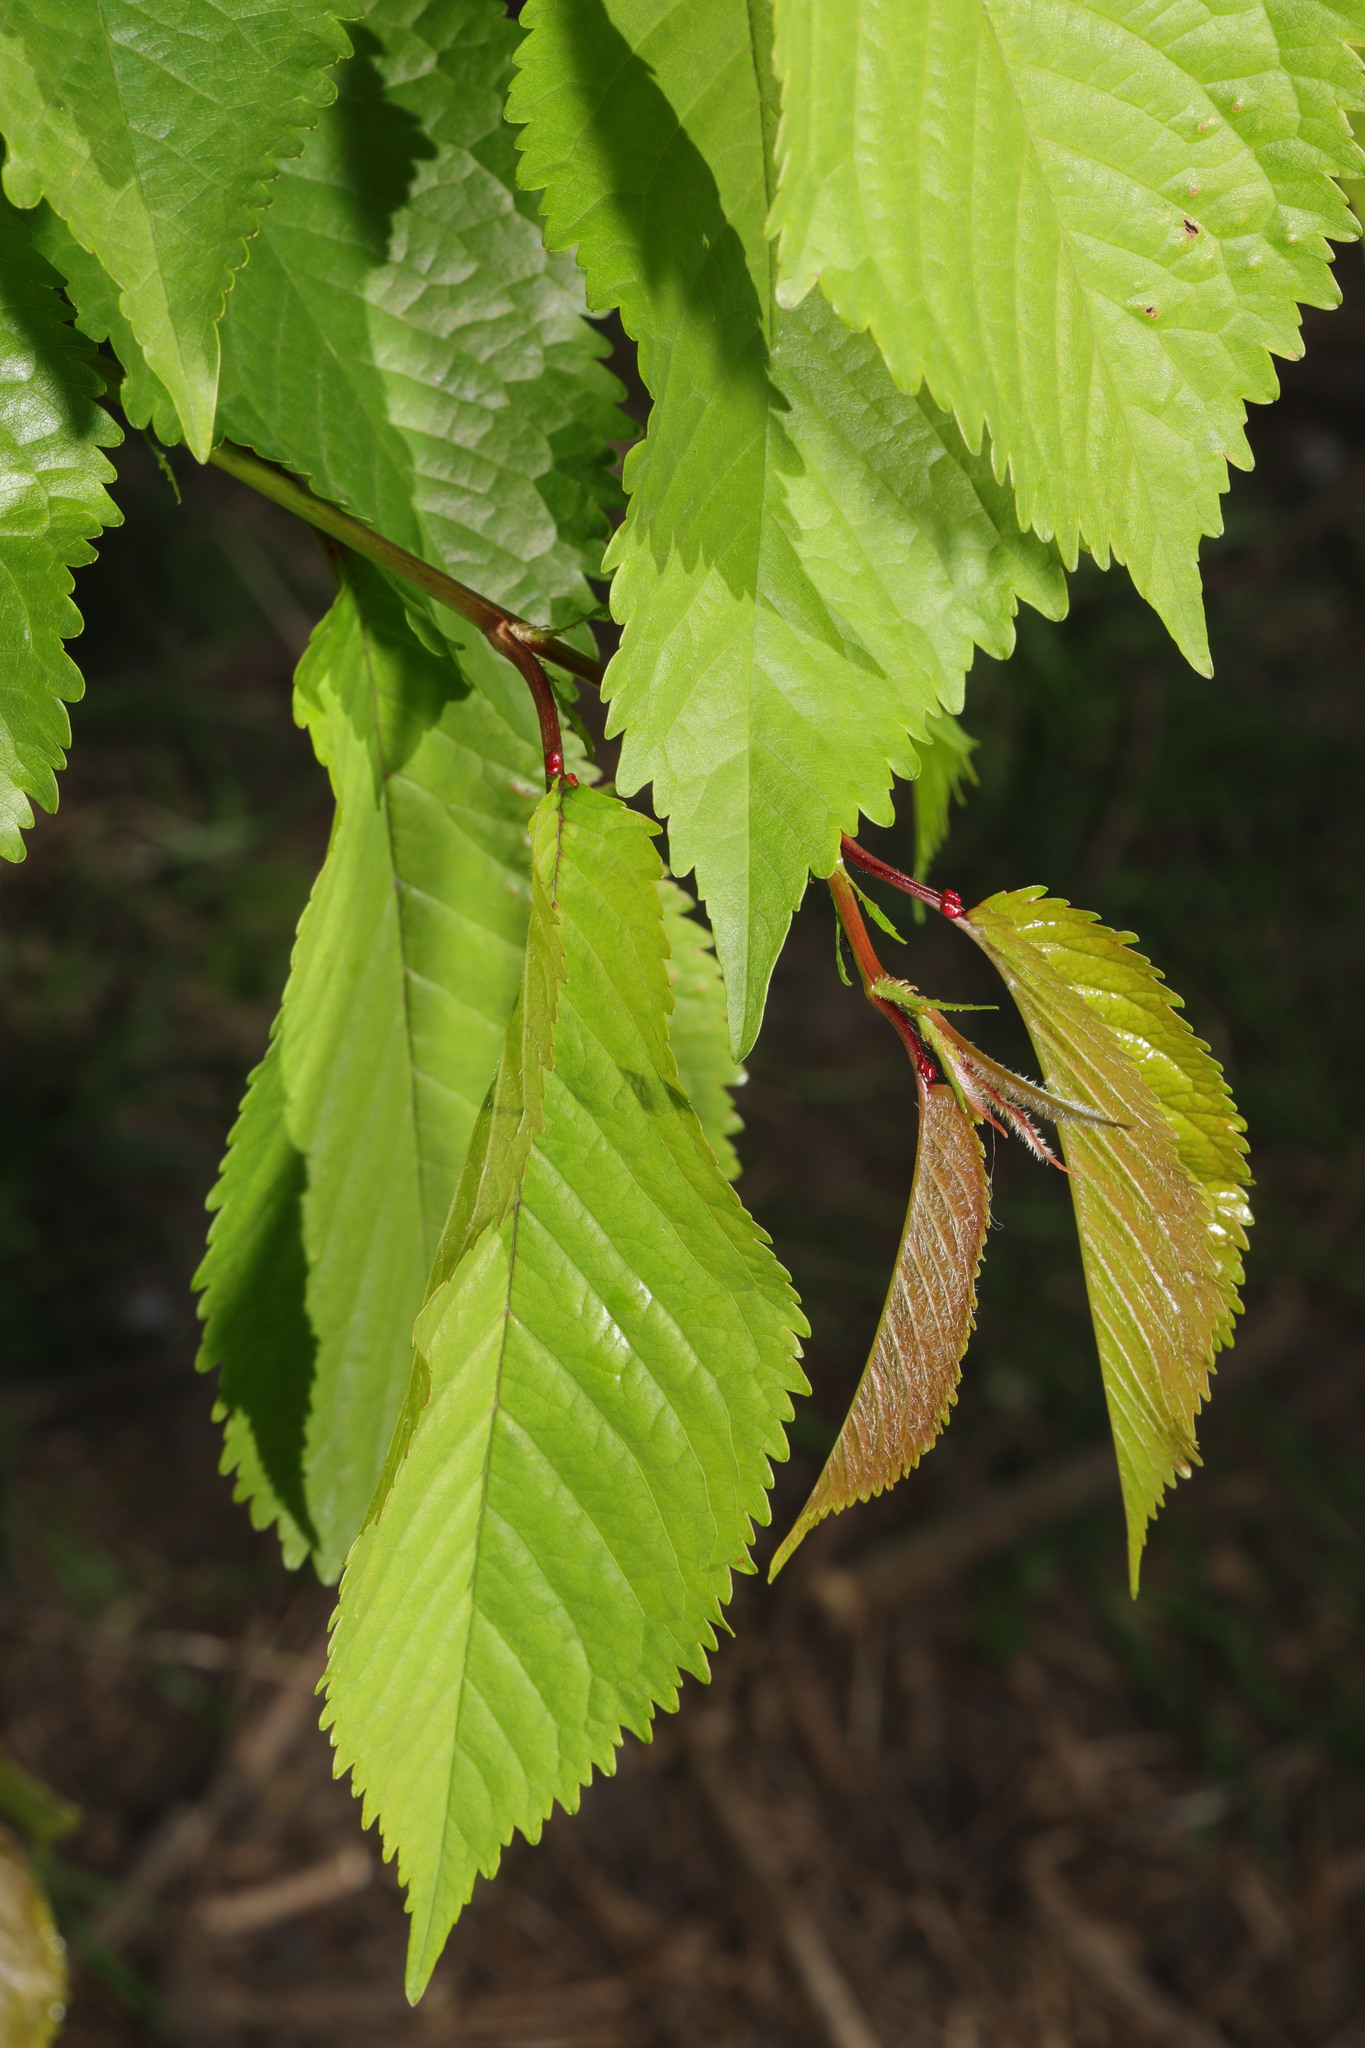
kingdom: Plantae
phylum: Tracheophyta
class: Magnoliopsida
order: Rosales
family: Rosaceae
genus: Prunus
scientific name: Prunus avium
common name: Sweet cherry
